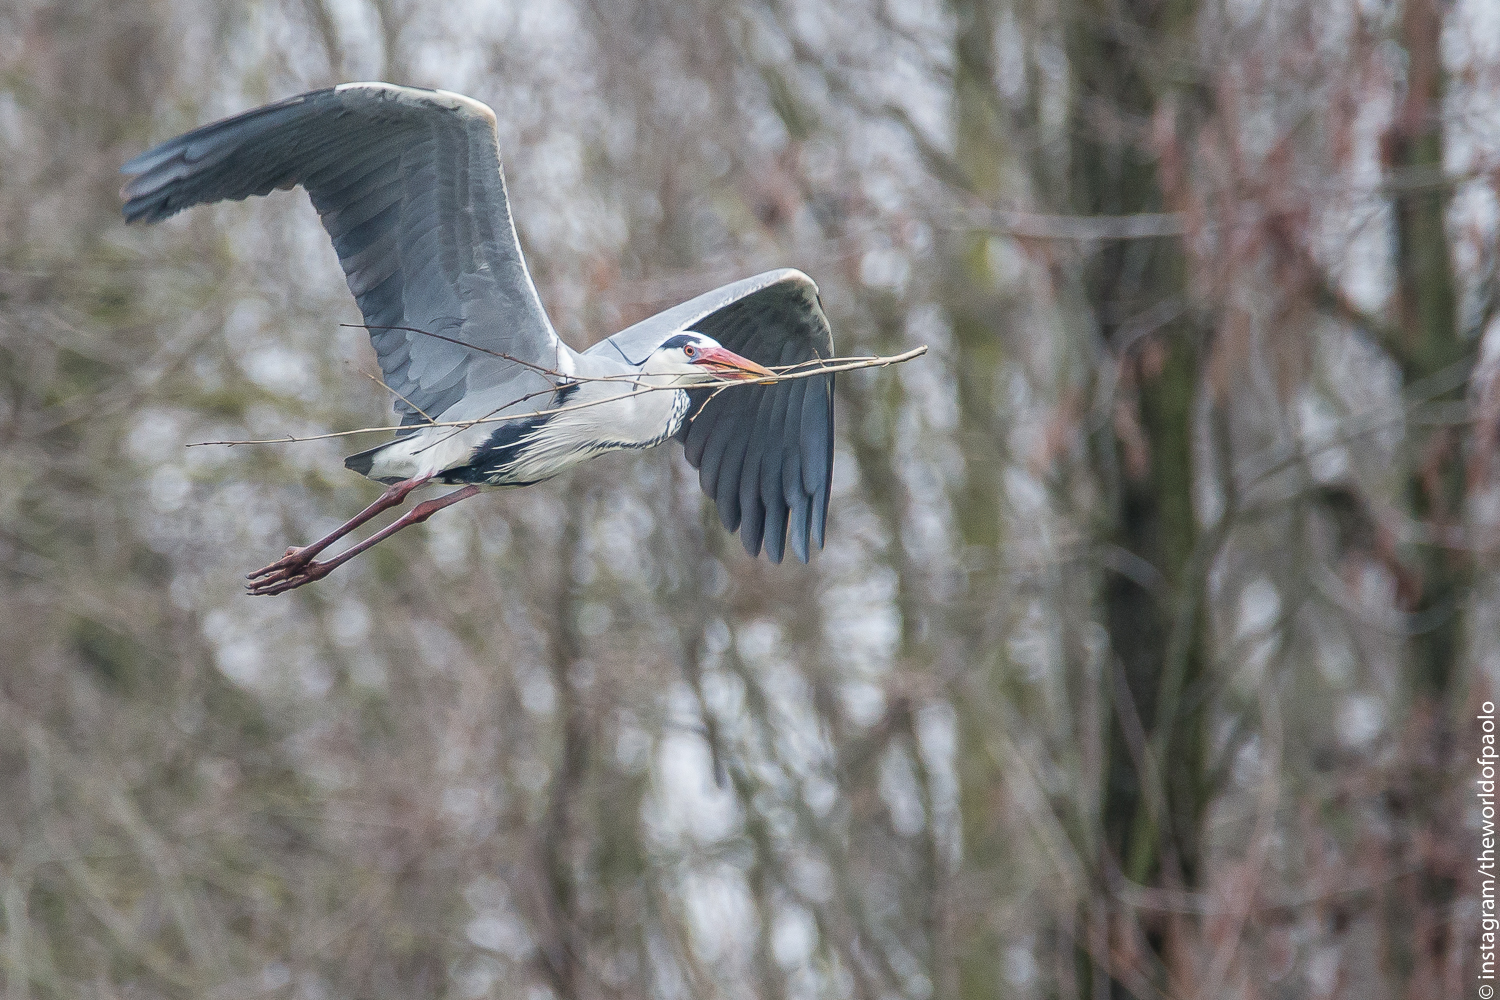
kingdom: Animalia
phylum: Chordata
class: Aves
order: Pelecaniformes
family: Ardeidae
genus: Ardea
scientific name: Ardea cinerea
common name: Grey heron
